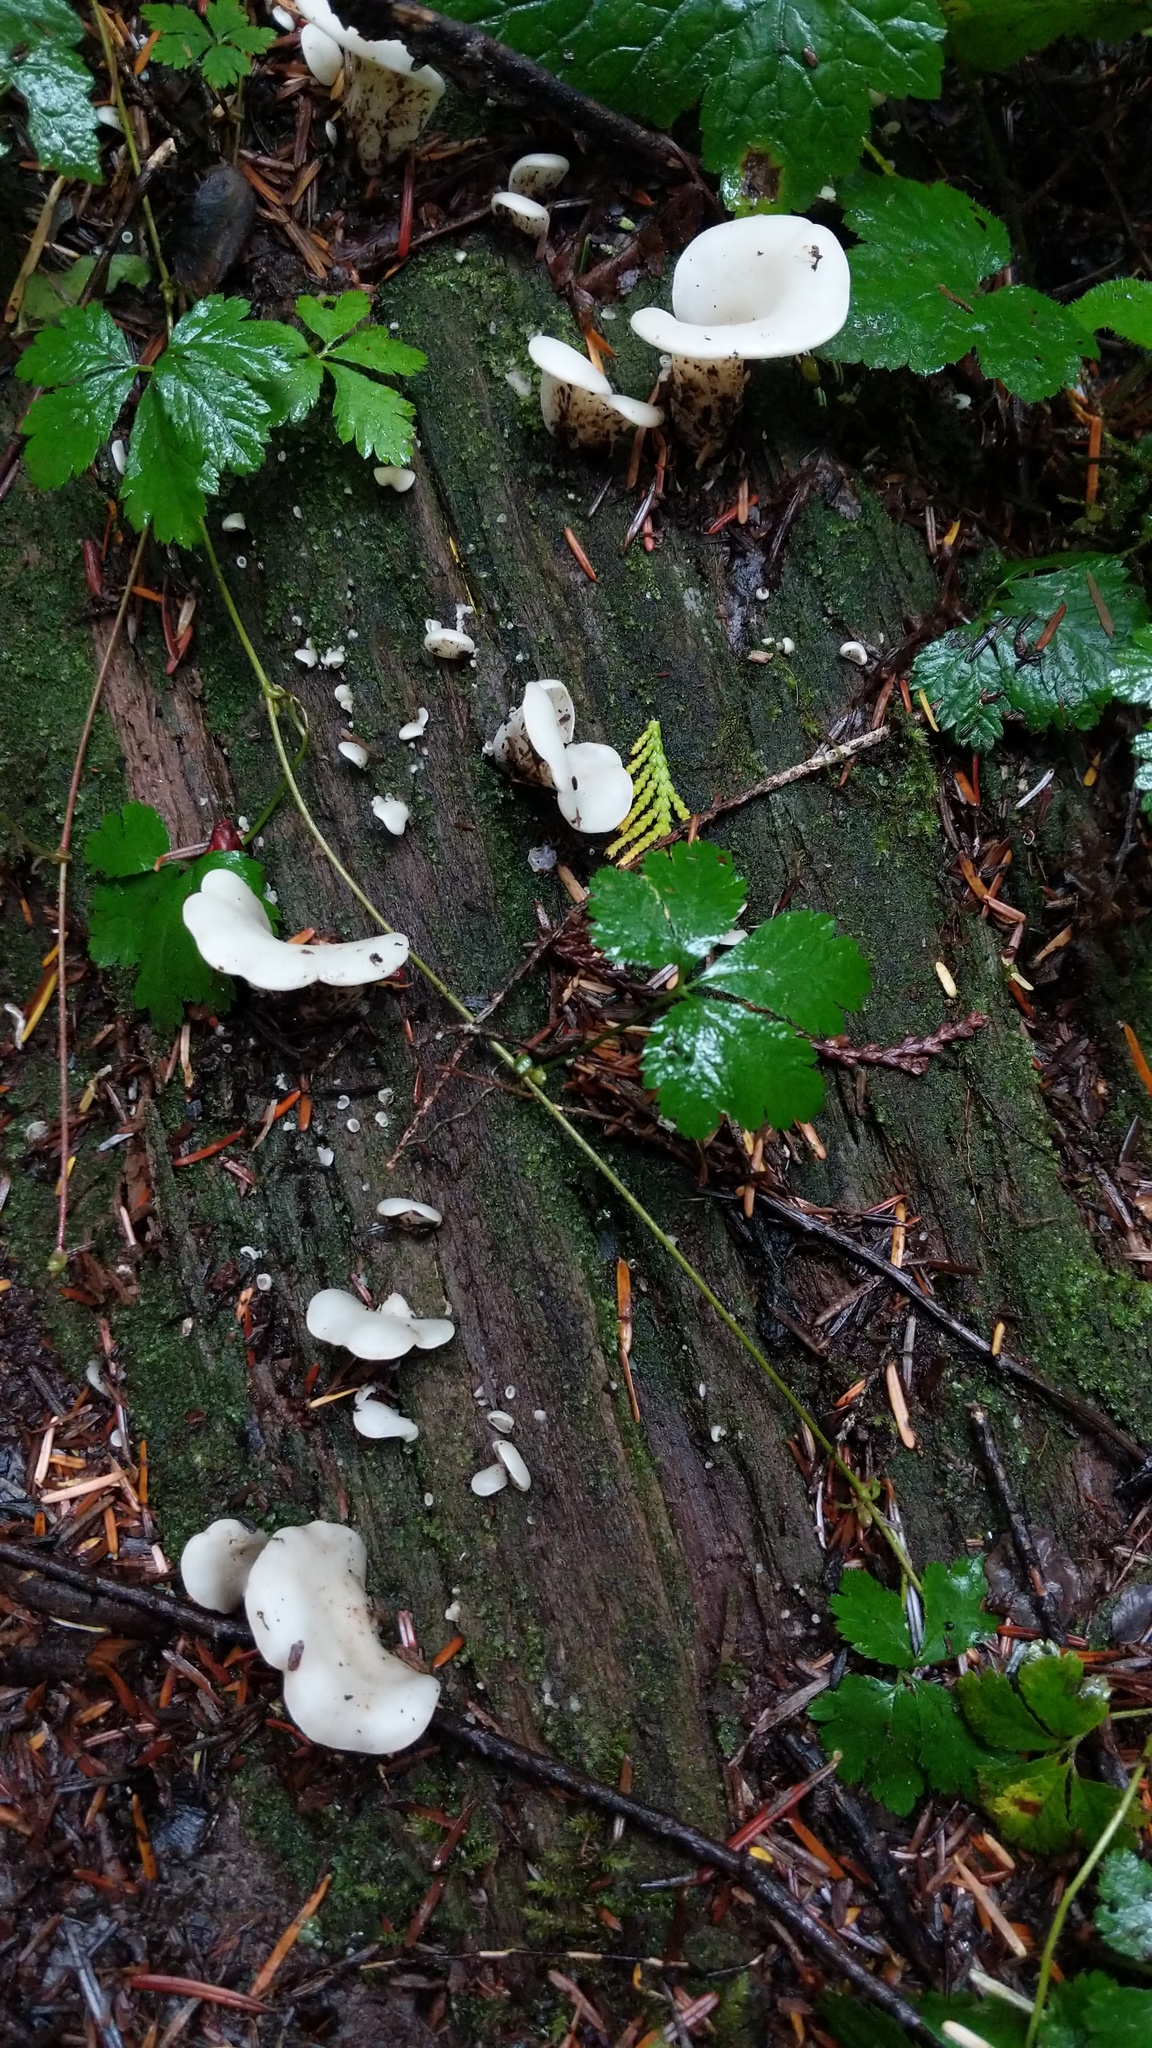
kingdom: Fungi
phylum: Basidiomycota
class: Agaricomycetes
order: Agaricales
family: Marasmiaceae
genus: Pleurocybella
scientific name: Pleurocybella porrigens
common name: Angel's wings
